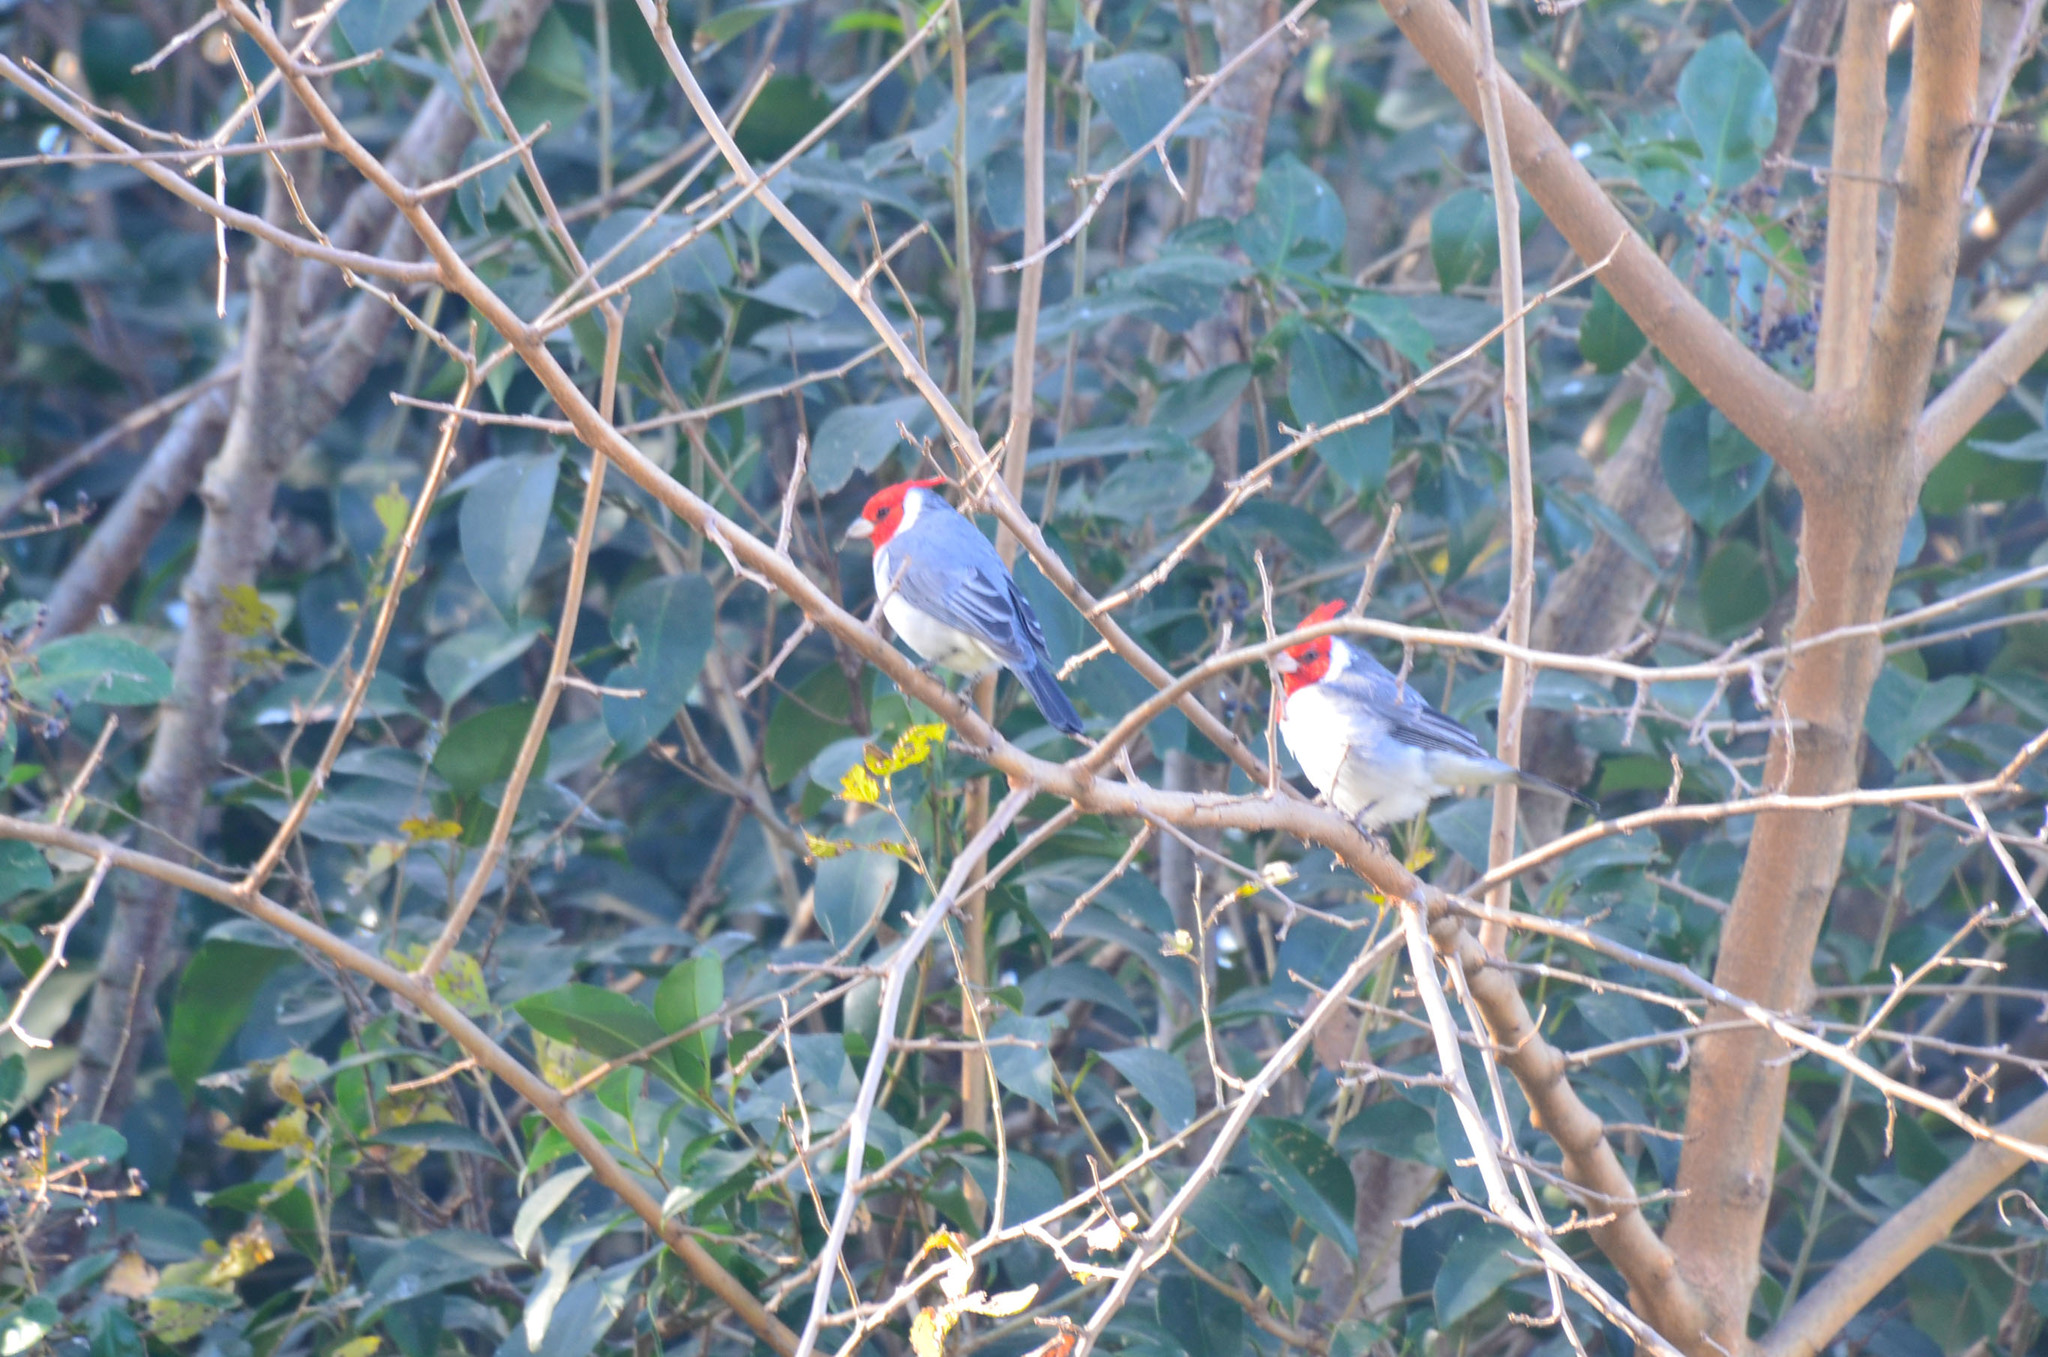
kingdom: Animalia
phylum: Chordata
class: Aves
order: Passeriformes
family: Thraupidae
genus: Paroaria
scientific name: Paroaria coronata
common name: Red-crested cardinal
